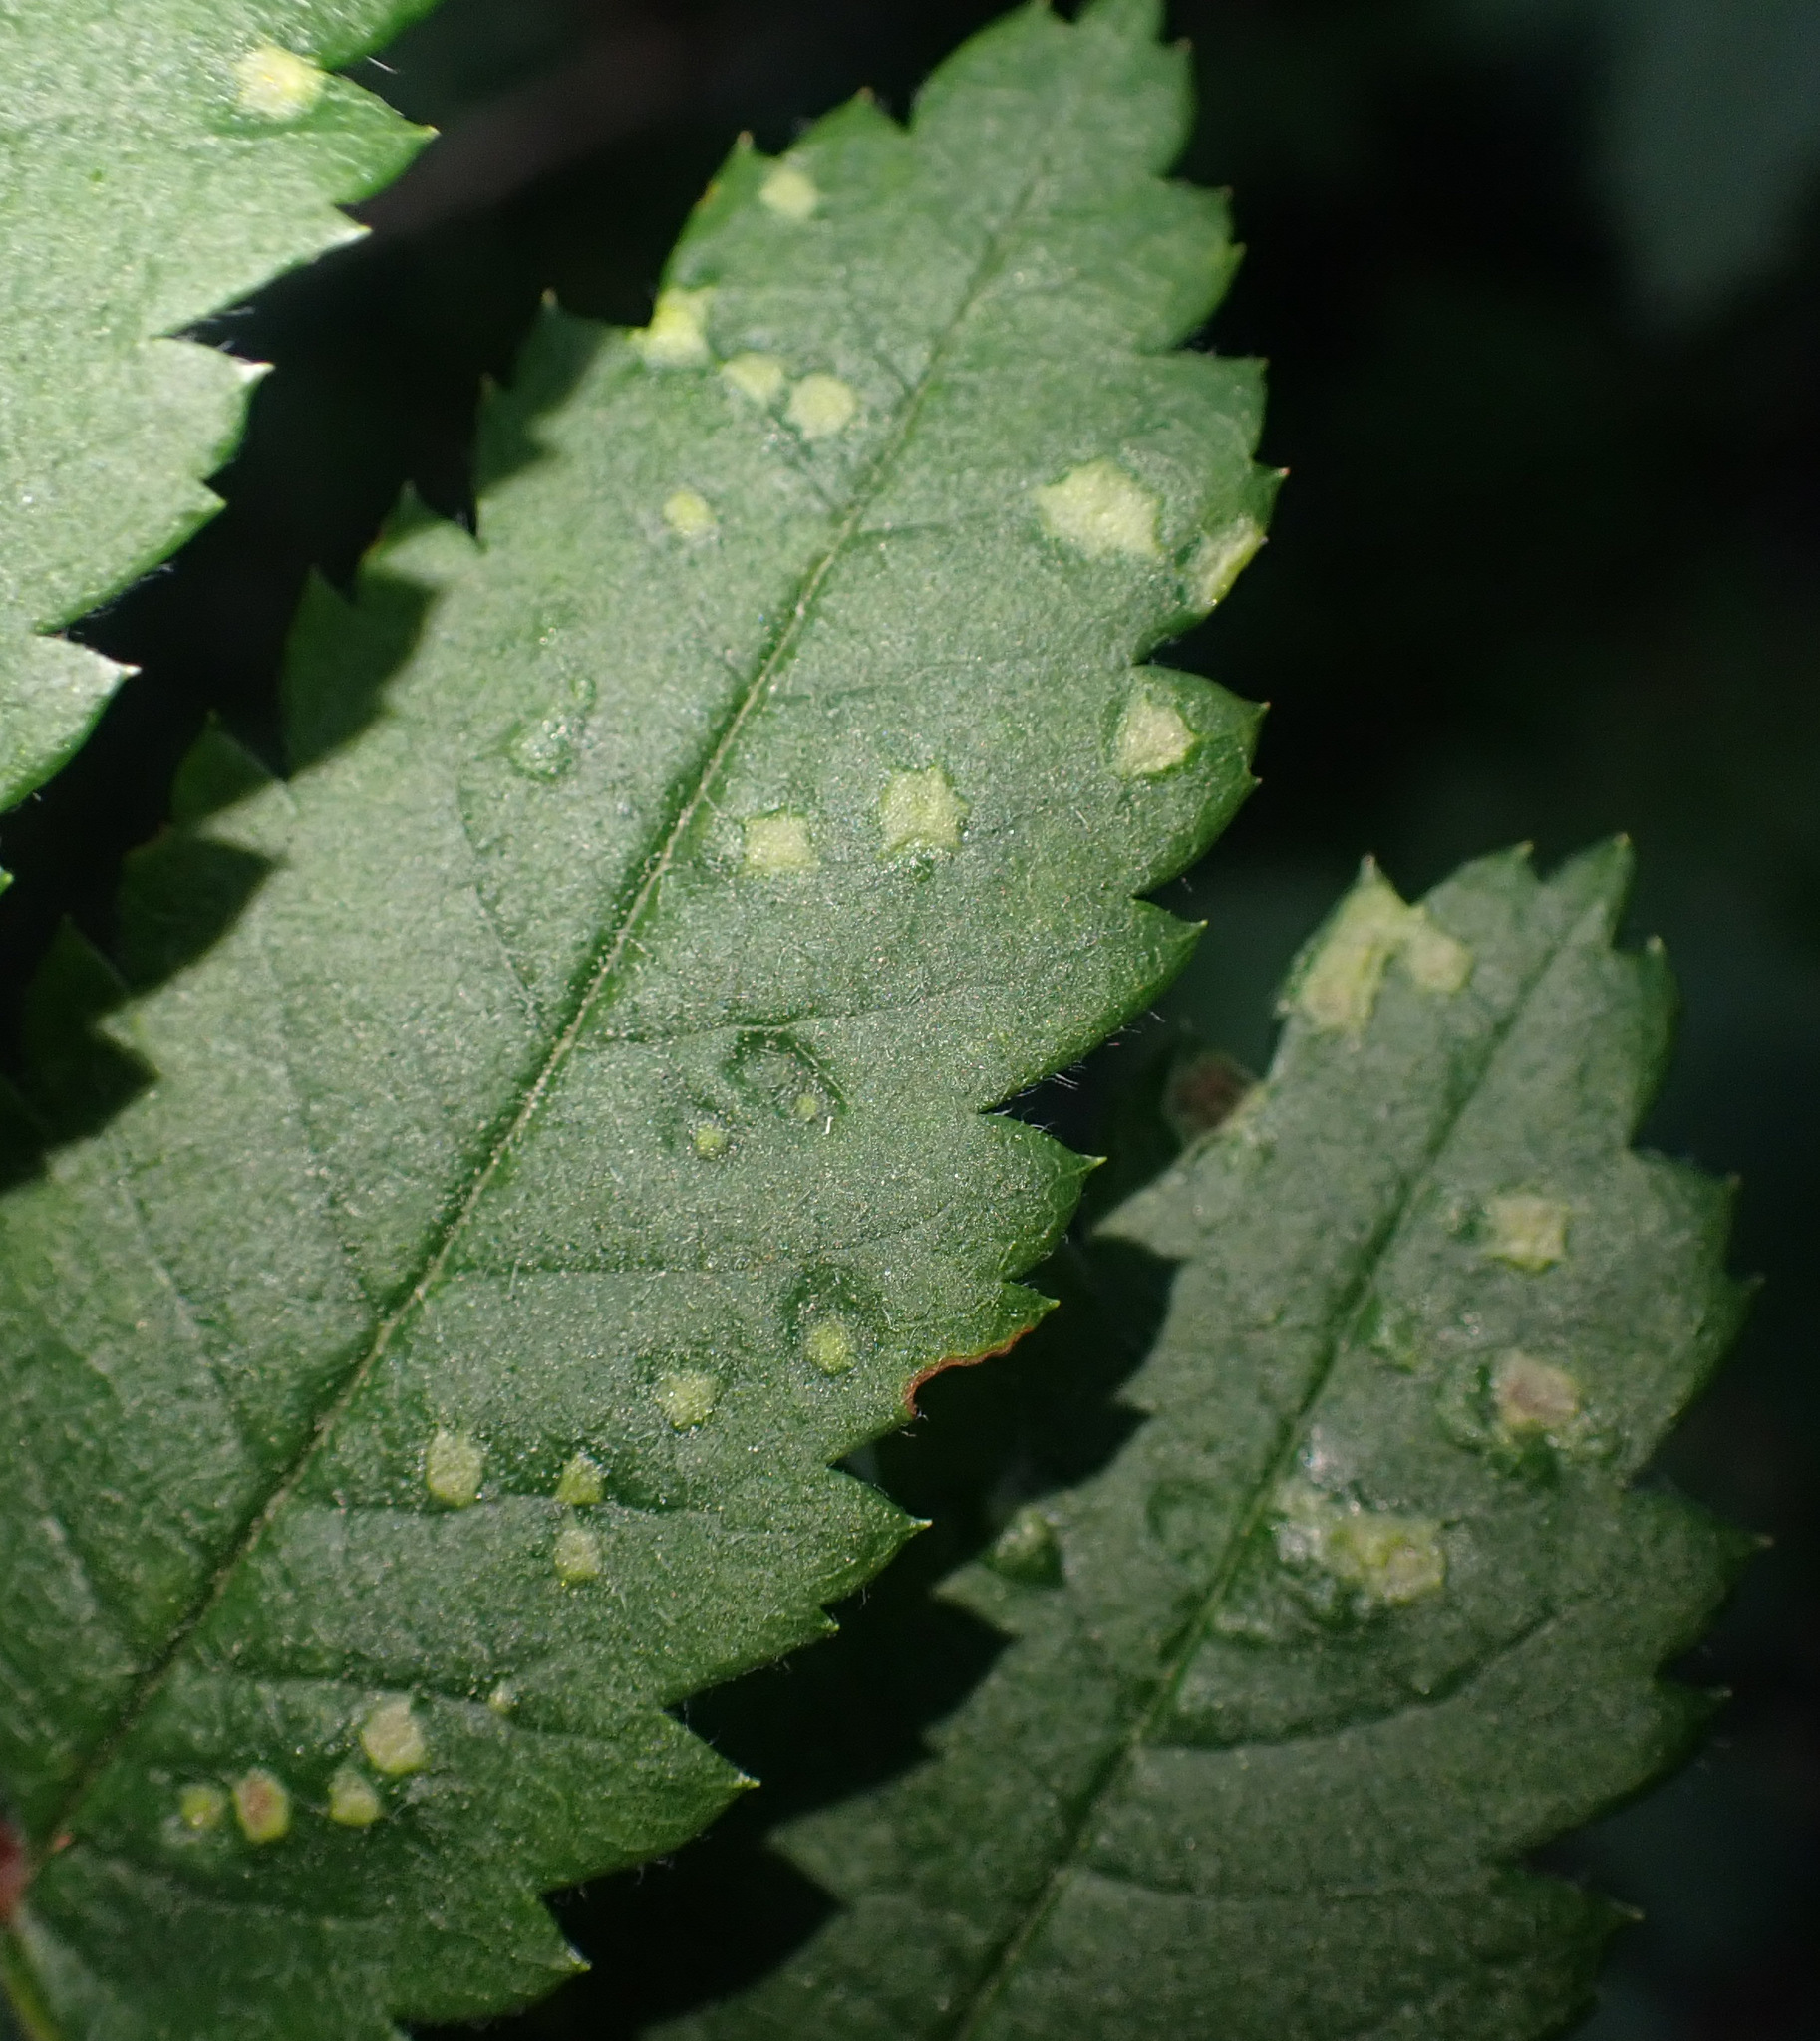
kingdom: Animalia
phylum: Arthropoda
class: Arachnida
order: Trombidiformes
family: Eriophyidae
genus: Eriophyes
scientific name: Eriophyes sorbi
